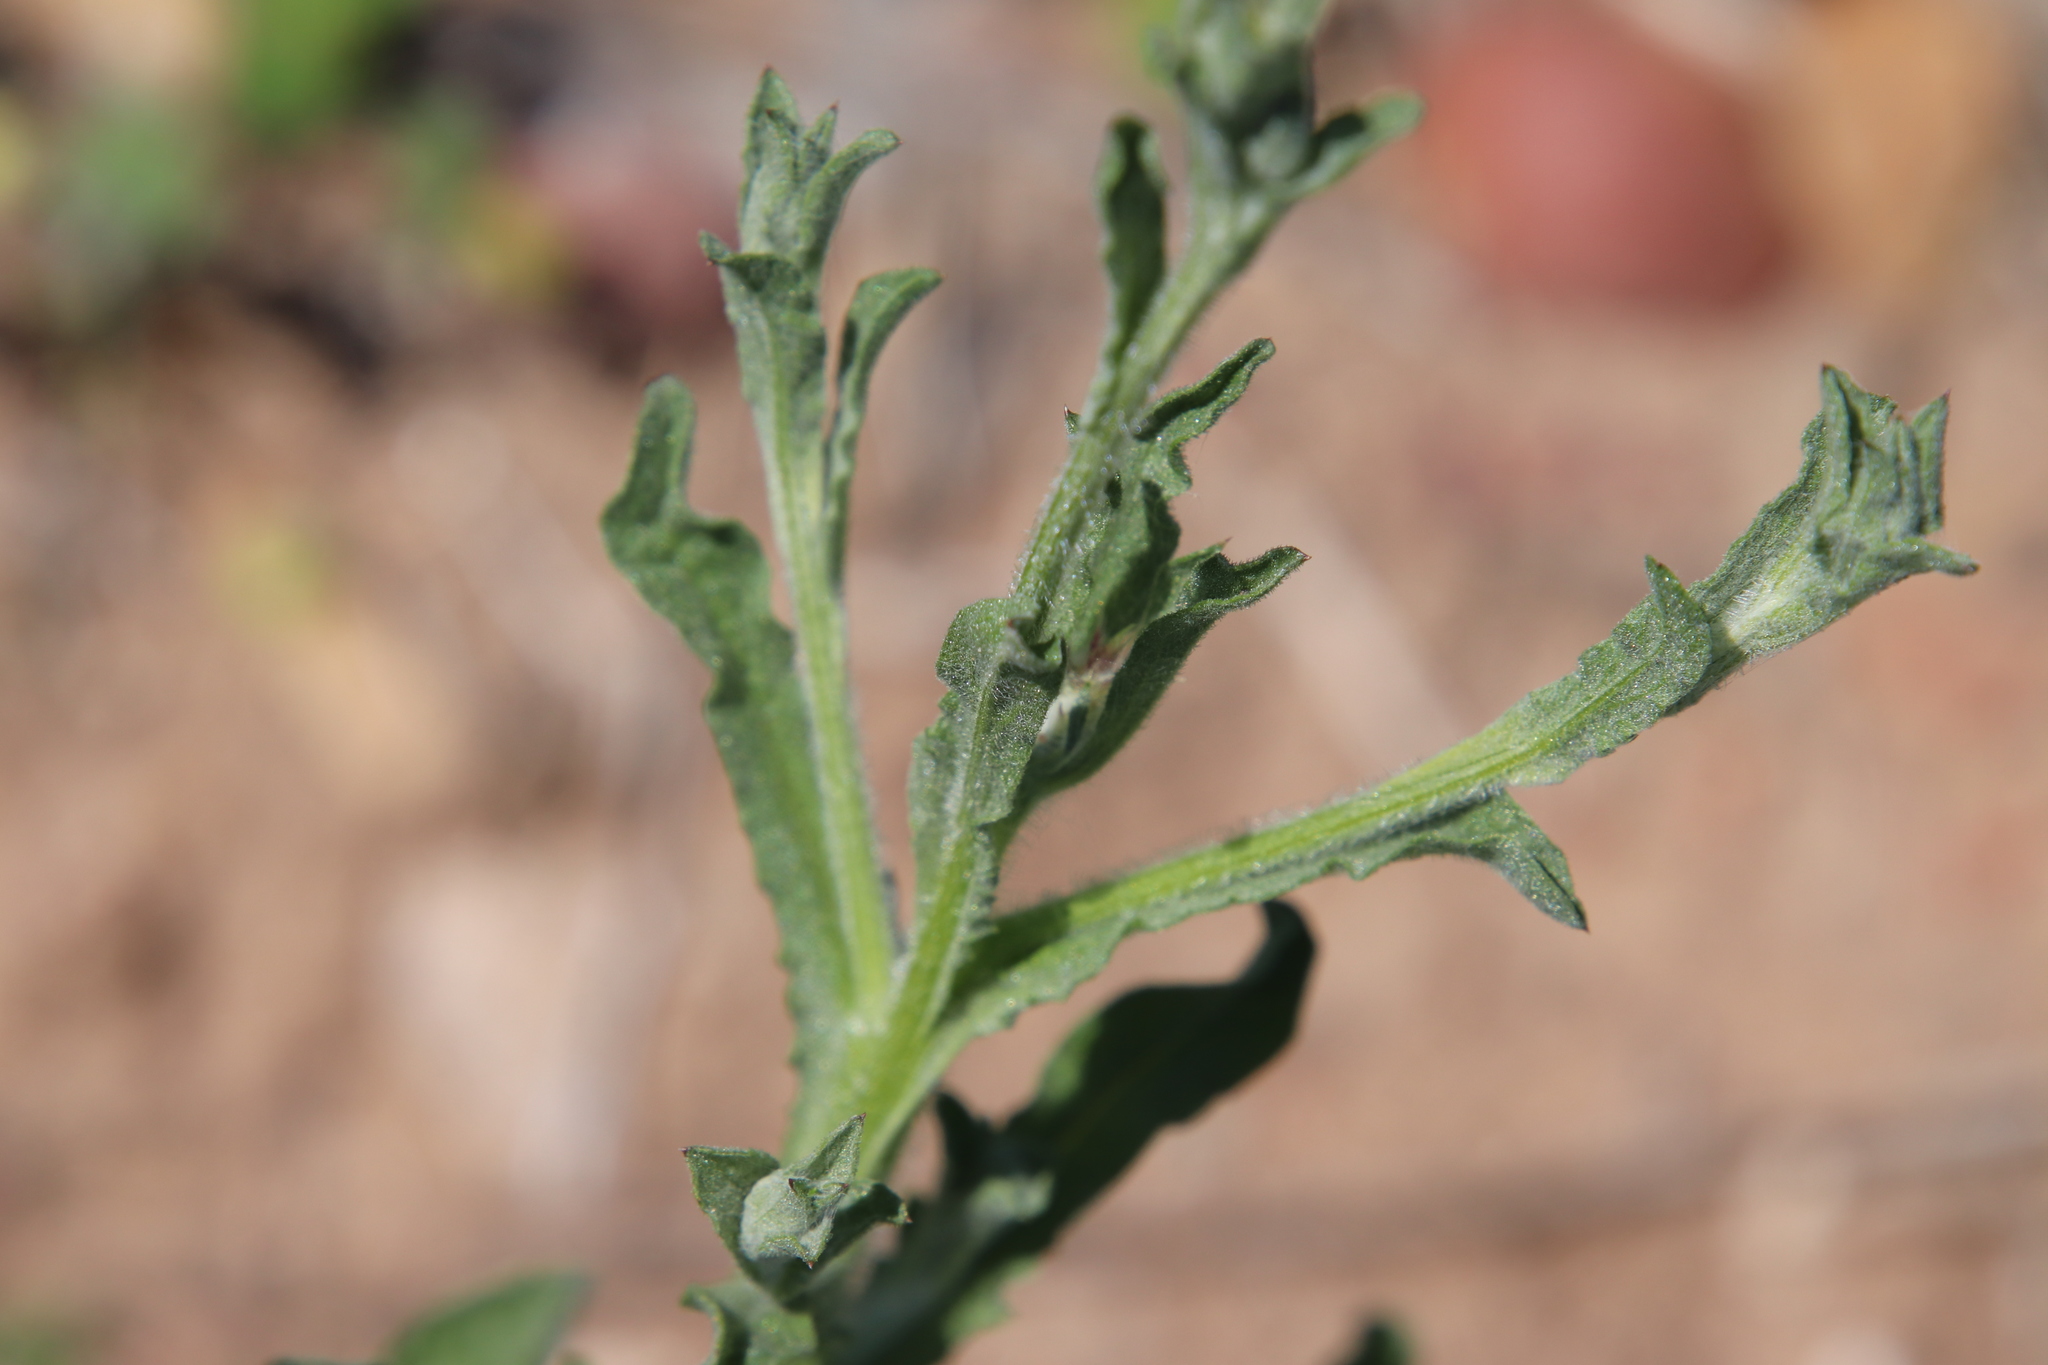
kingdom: Plantae
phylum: Tracheophyta
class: Magnoliopsida
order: Asterales
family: Asteraceae
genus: Centaurea
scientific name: Centaurea melitensis
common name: Maltese star-thistle
